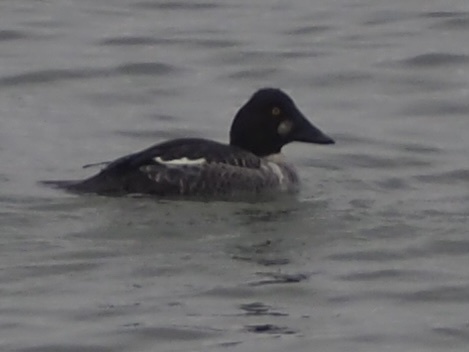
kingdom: Animalia
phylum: Chordata
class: Aves
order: Anseriformes
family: Anatidae
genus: Bucephala
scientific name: Bucephala clangula
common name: Common goldeneye
